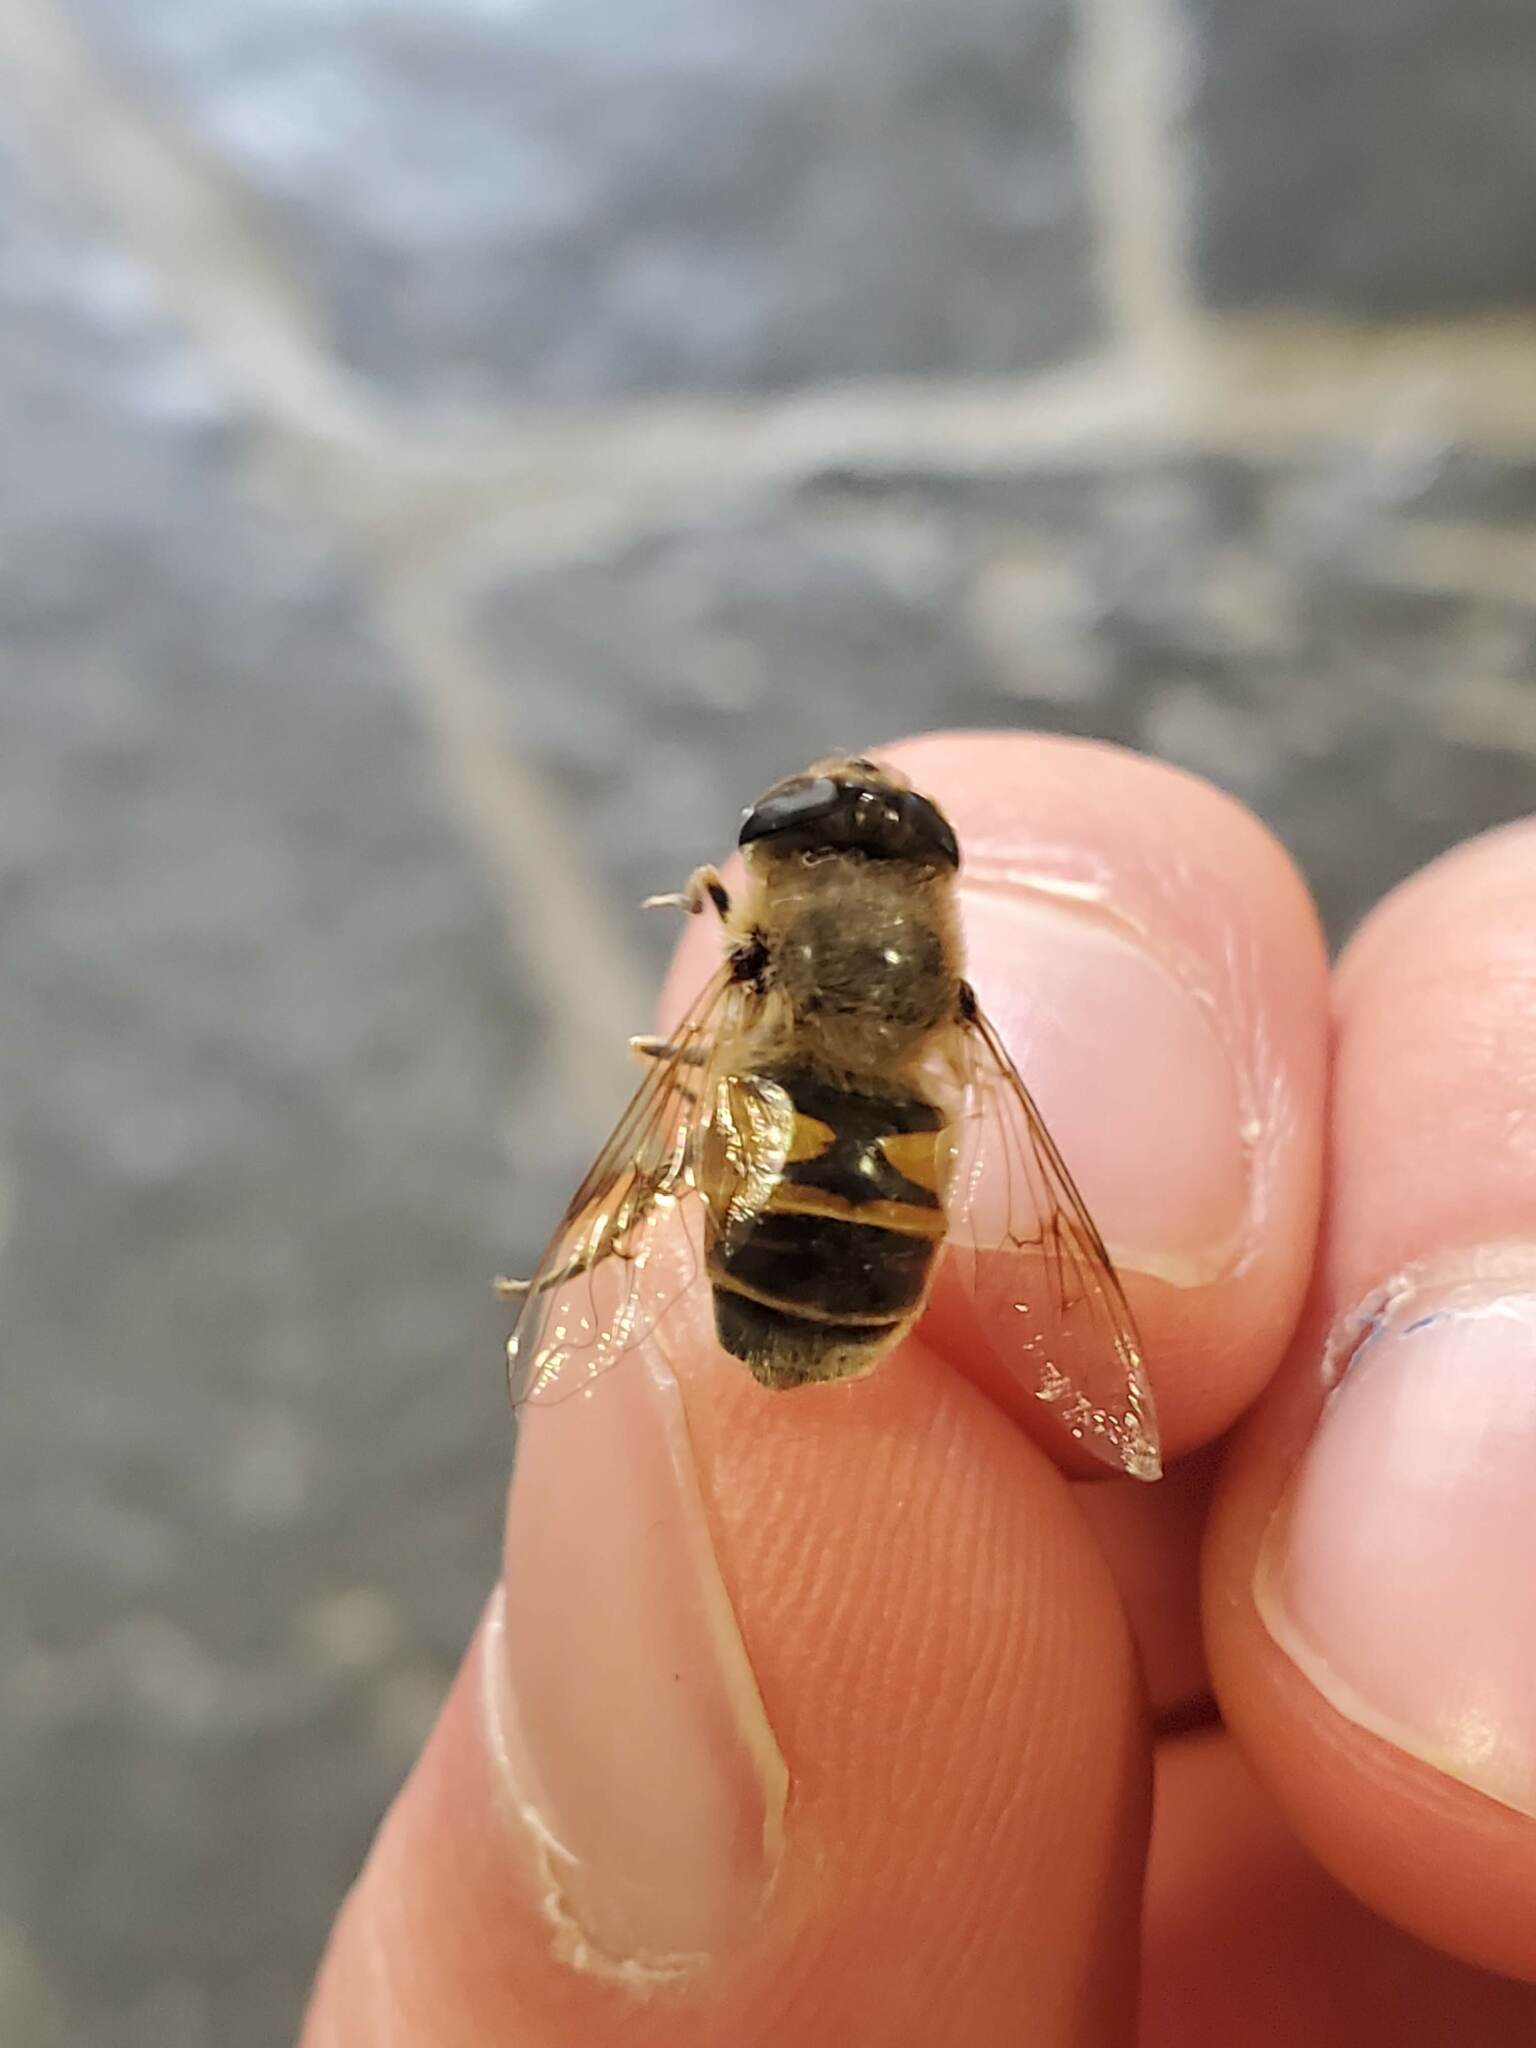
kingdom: Animalia
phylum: Arthropoda
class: Insecta
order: Diptera
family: Syrphidae
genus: Eristalis
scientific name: Eristalis tenax
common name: Drone fly
